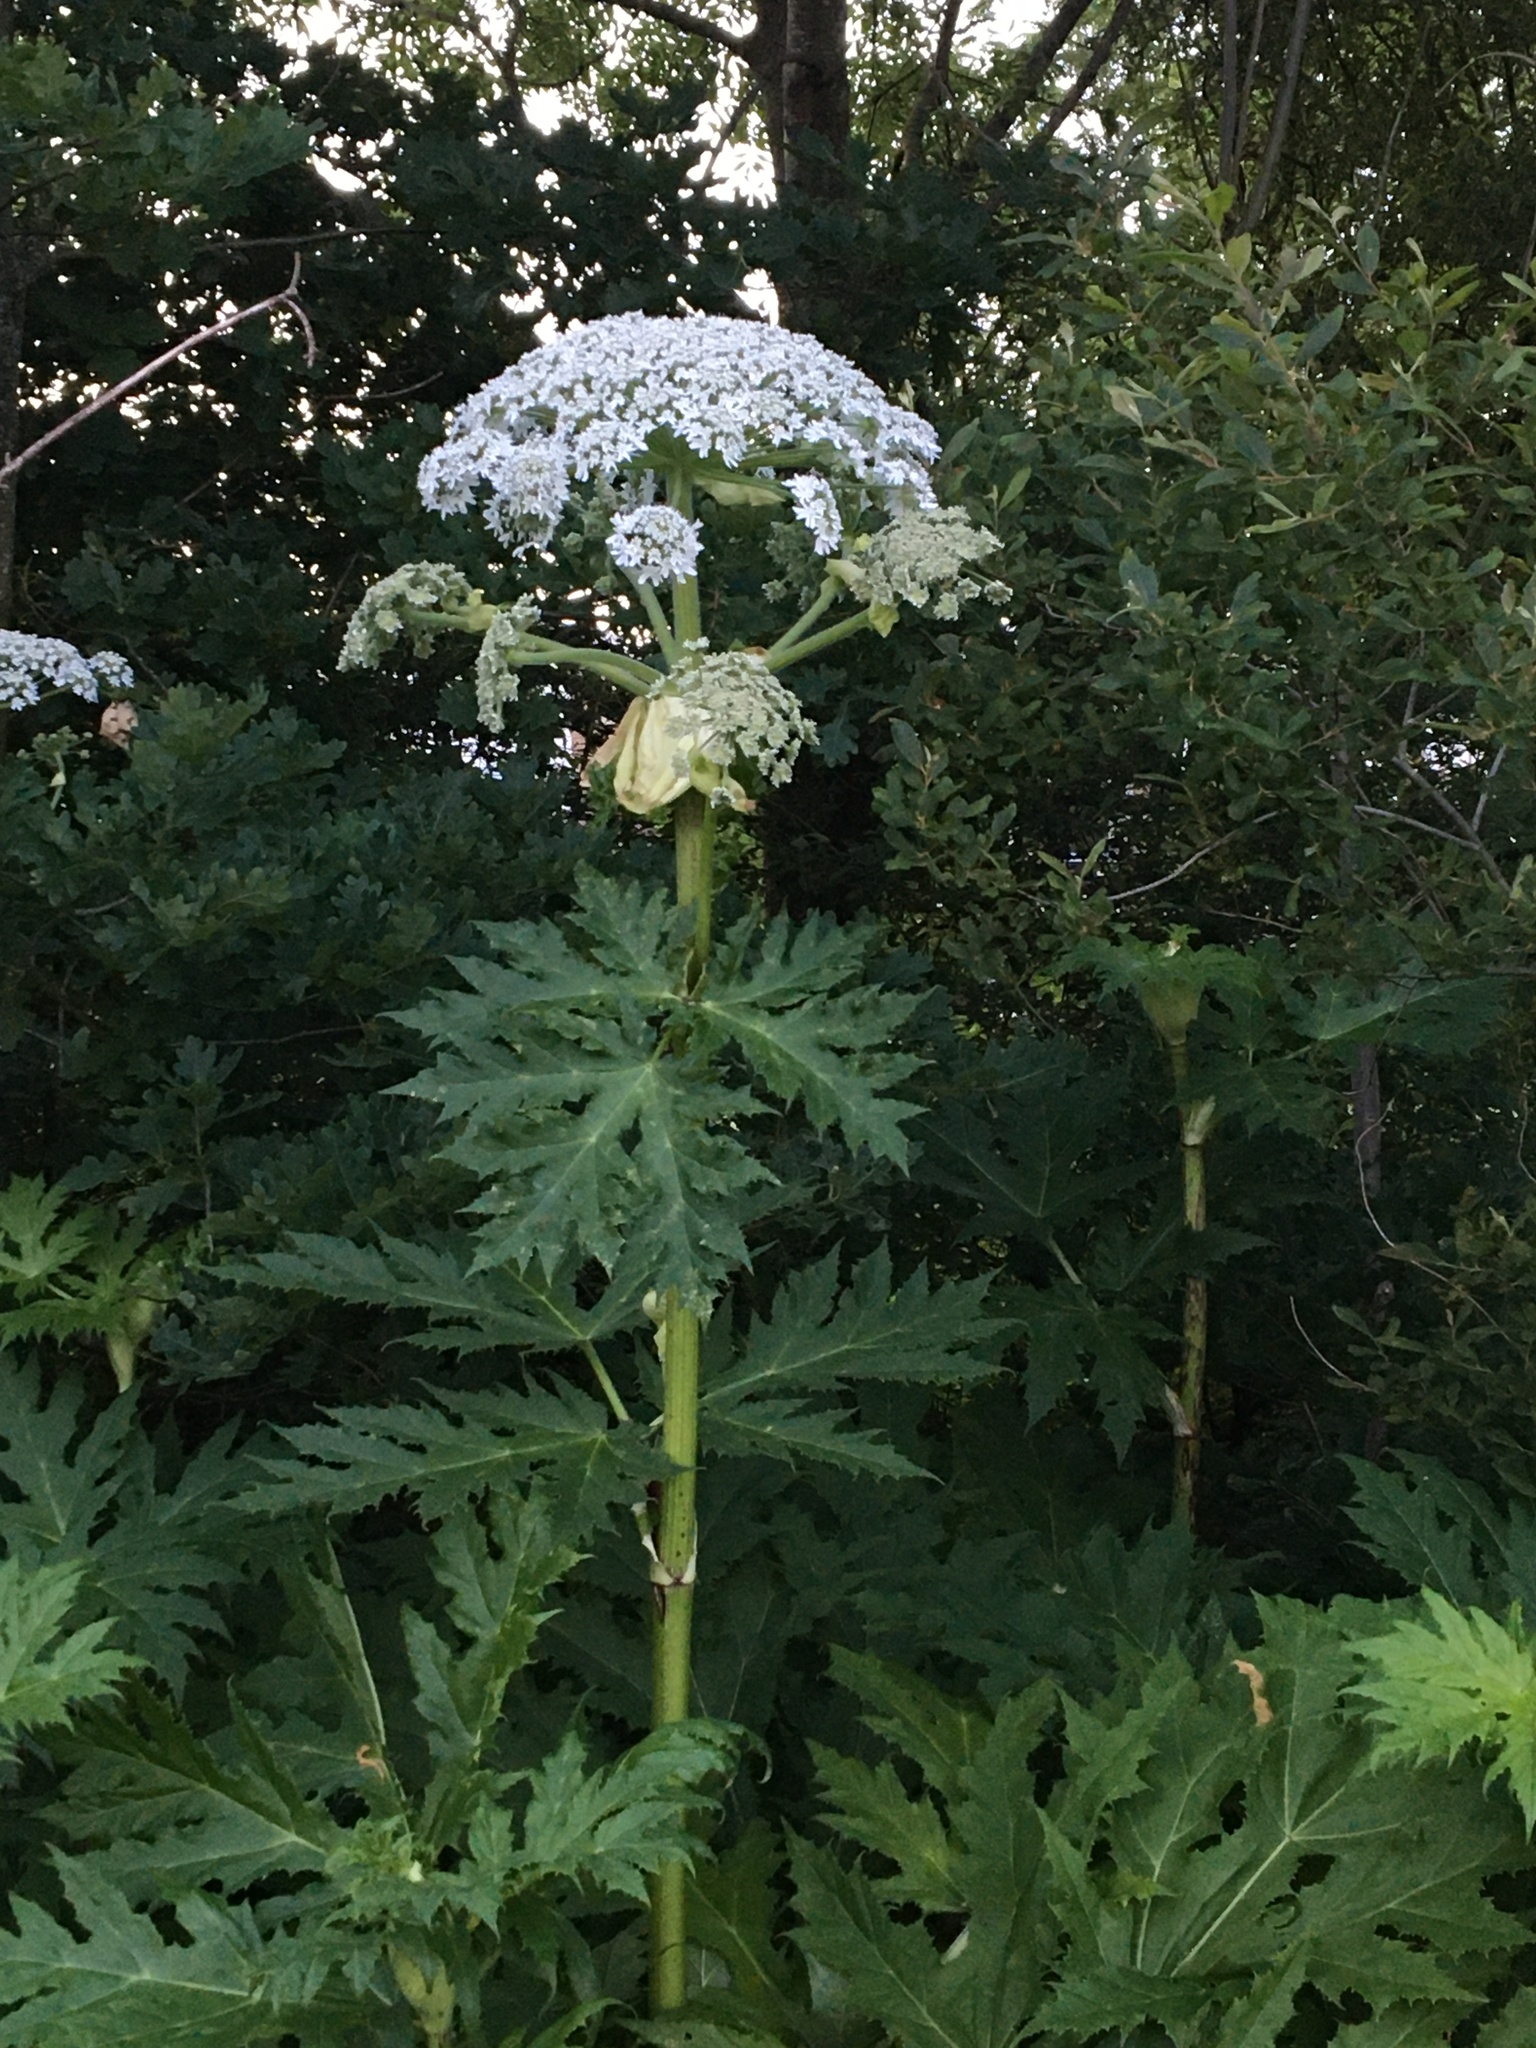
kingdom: Plantae
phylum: Tracheophyta
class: Magnoliopsida
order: Apiales
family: Apiaceae
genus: Heracleum
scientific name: Heracleum mantegazzianum
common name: Giant hogweed
